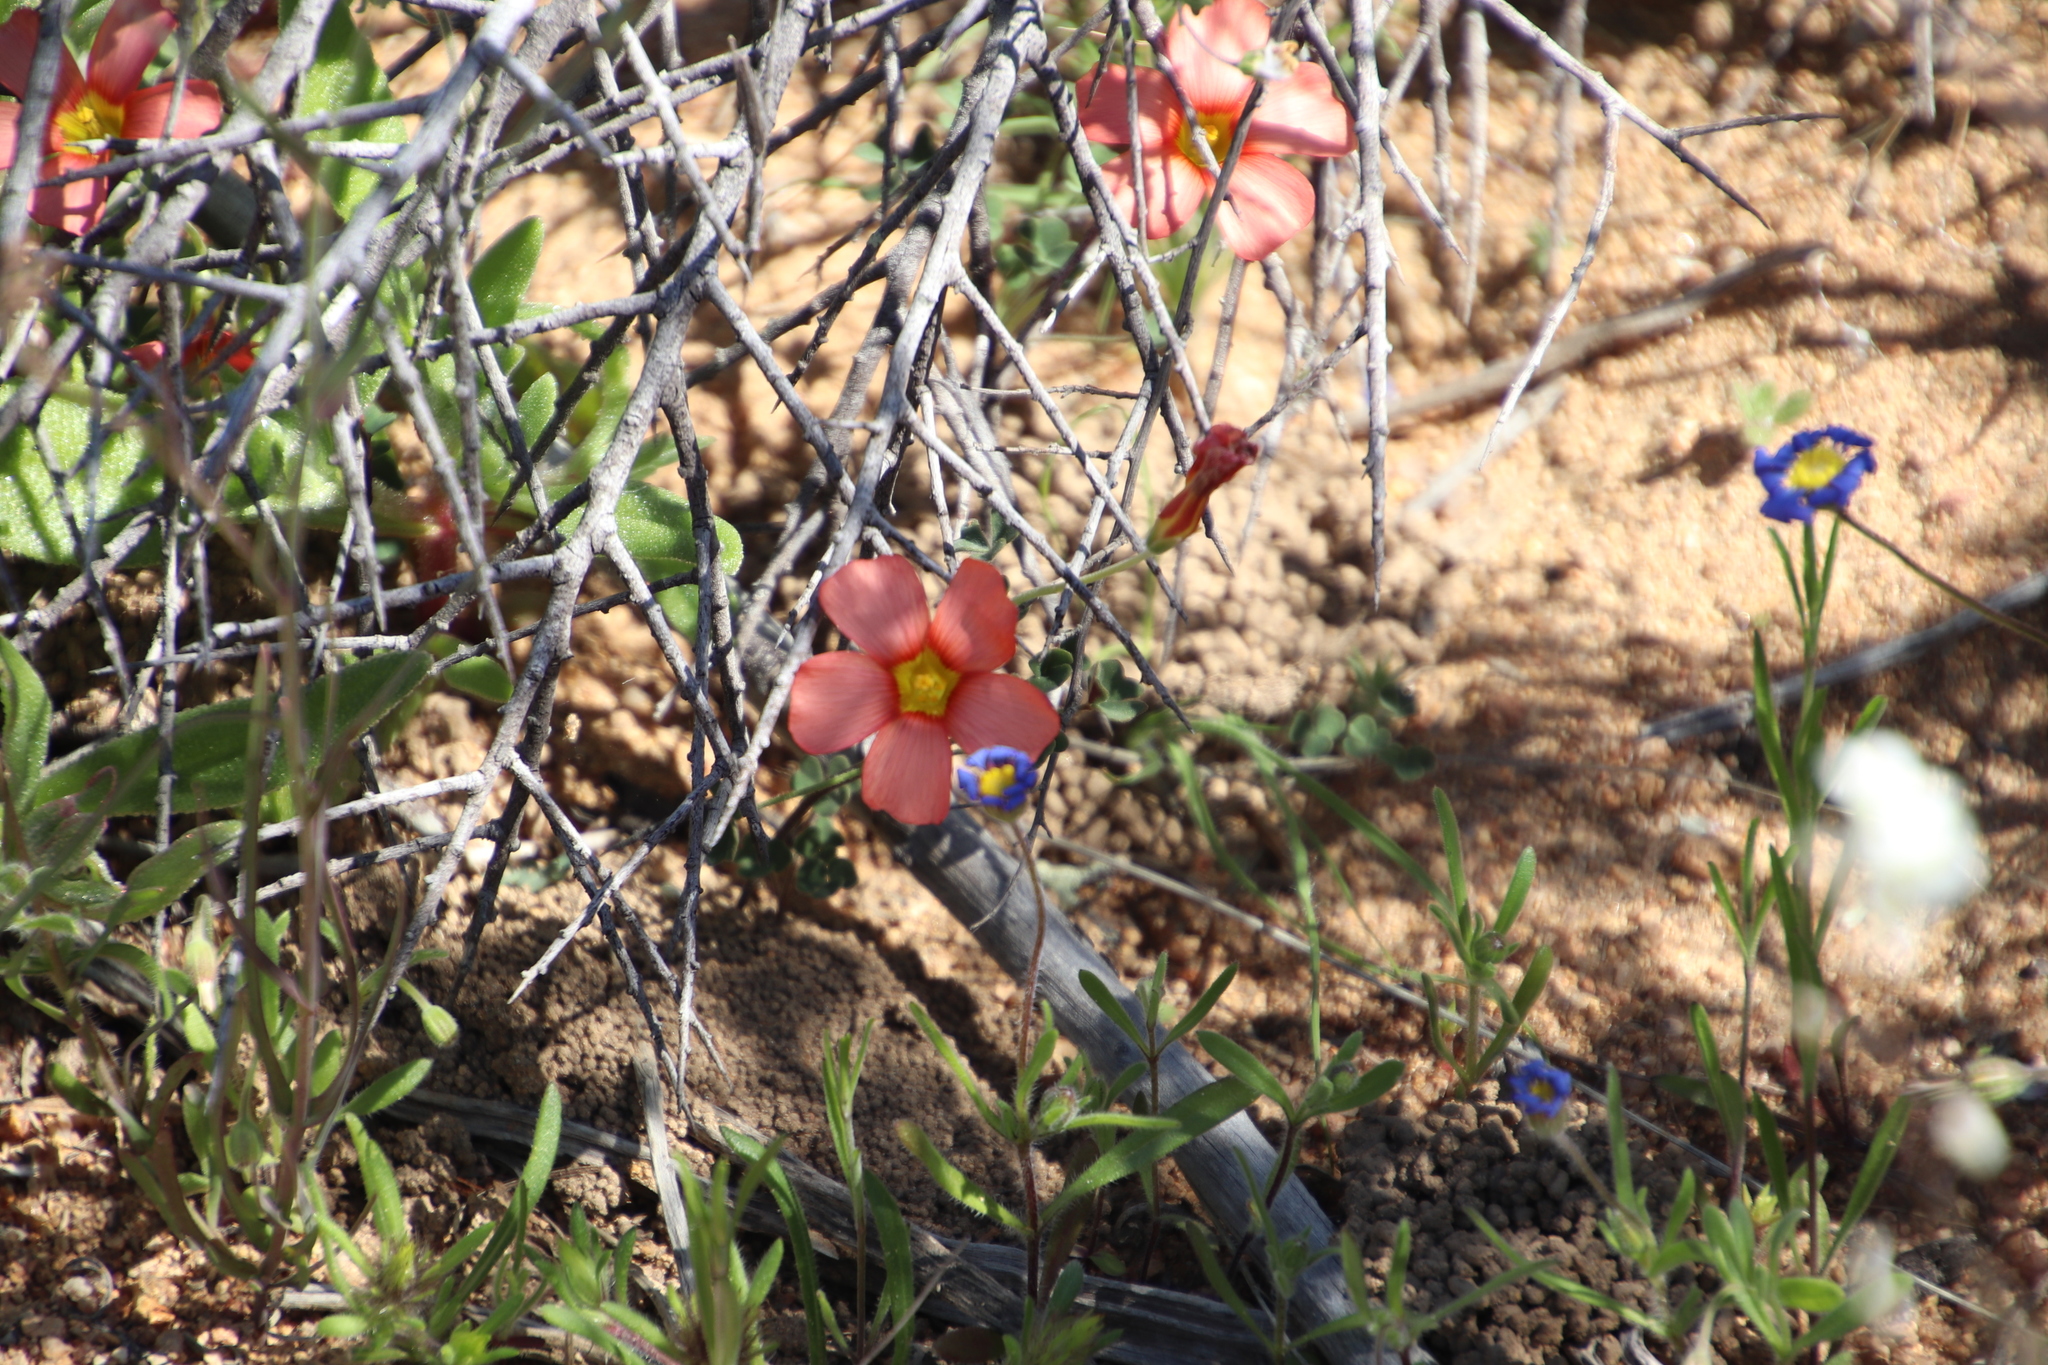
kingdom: Plantae
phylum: Tracheophyta
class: Magnoliopsida
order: Oxalidales
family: Oxalidaceae
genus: Oxalis
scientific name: Oxalis obtusa
